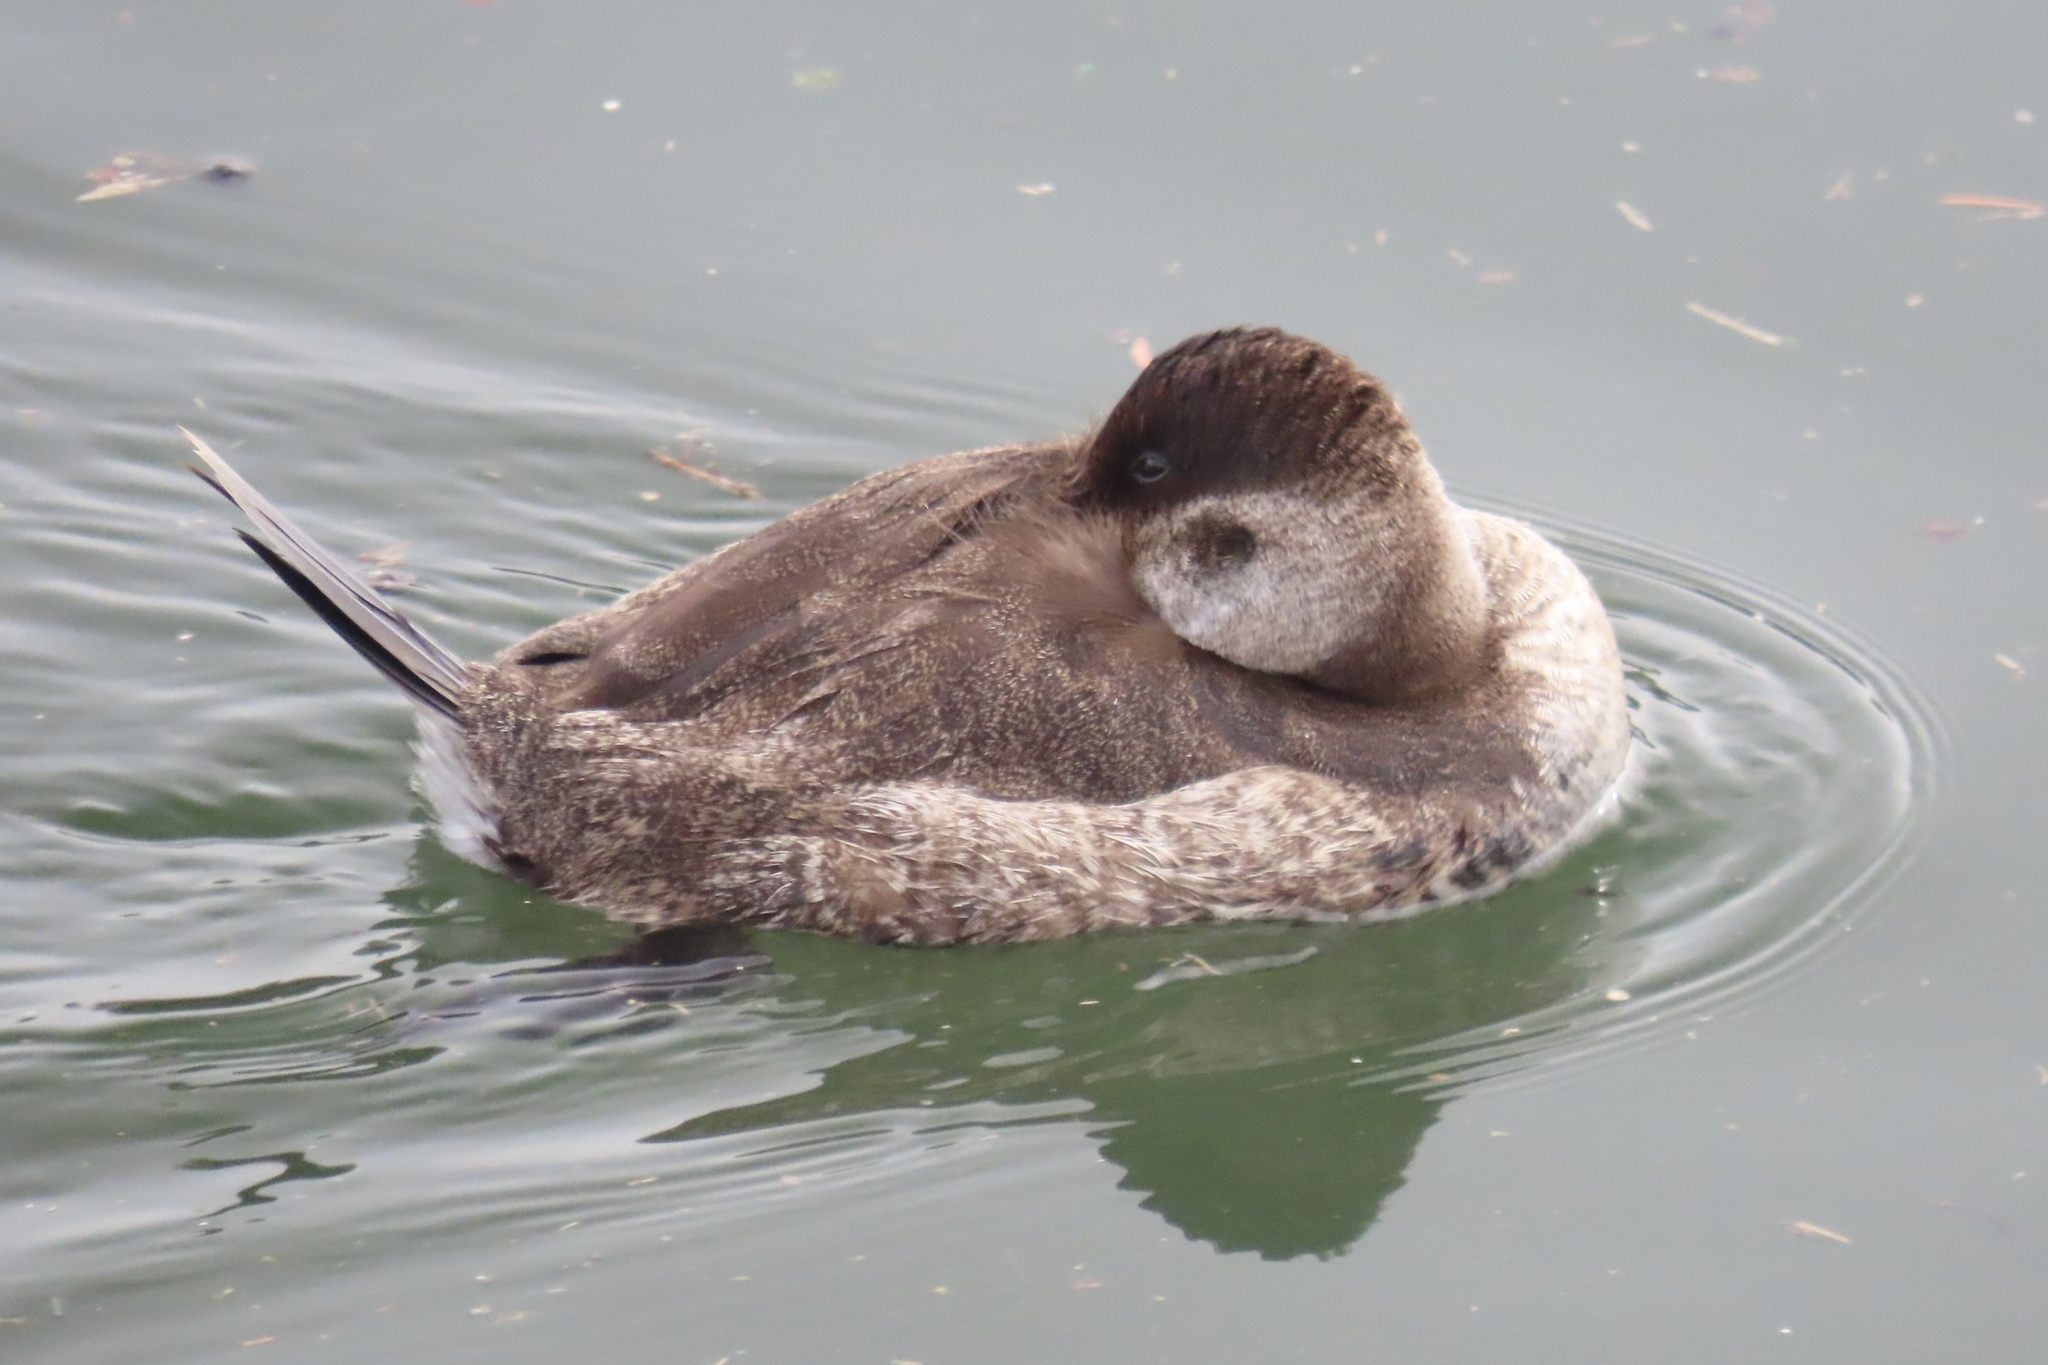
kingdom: Animalia
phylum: Chordata
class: Aves
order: Anseriformes
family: Anatidae
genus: Oxyura
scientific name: Oxyura jamaicensis
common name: Ruddy duck
